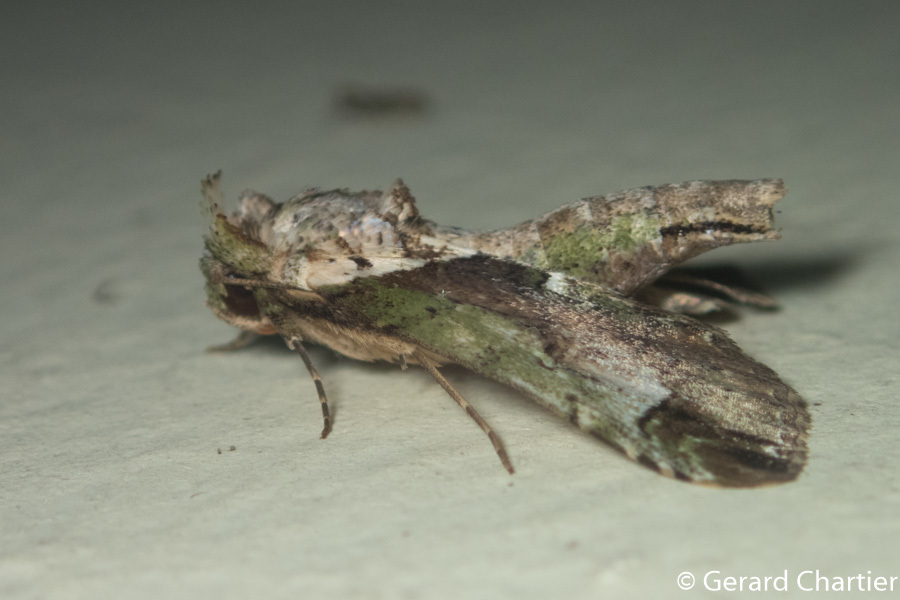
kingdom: Animalia
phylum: Arthropoda
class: Insecta
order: Lepidoptera
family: Nolidae
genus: Risoba
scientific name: Risoba basalis
